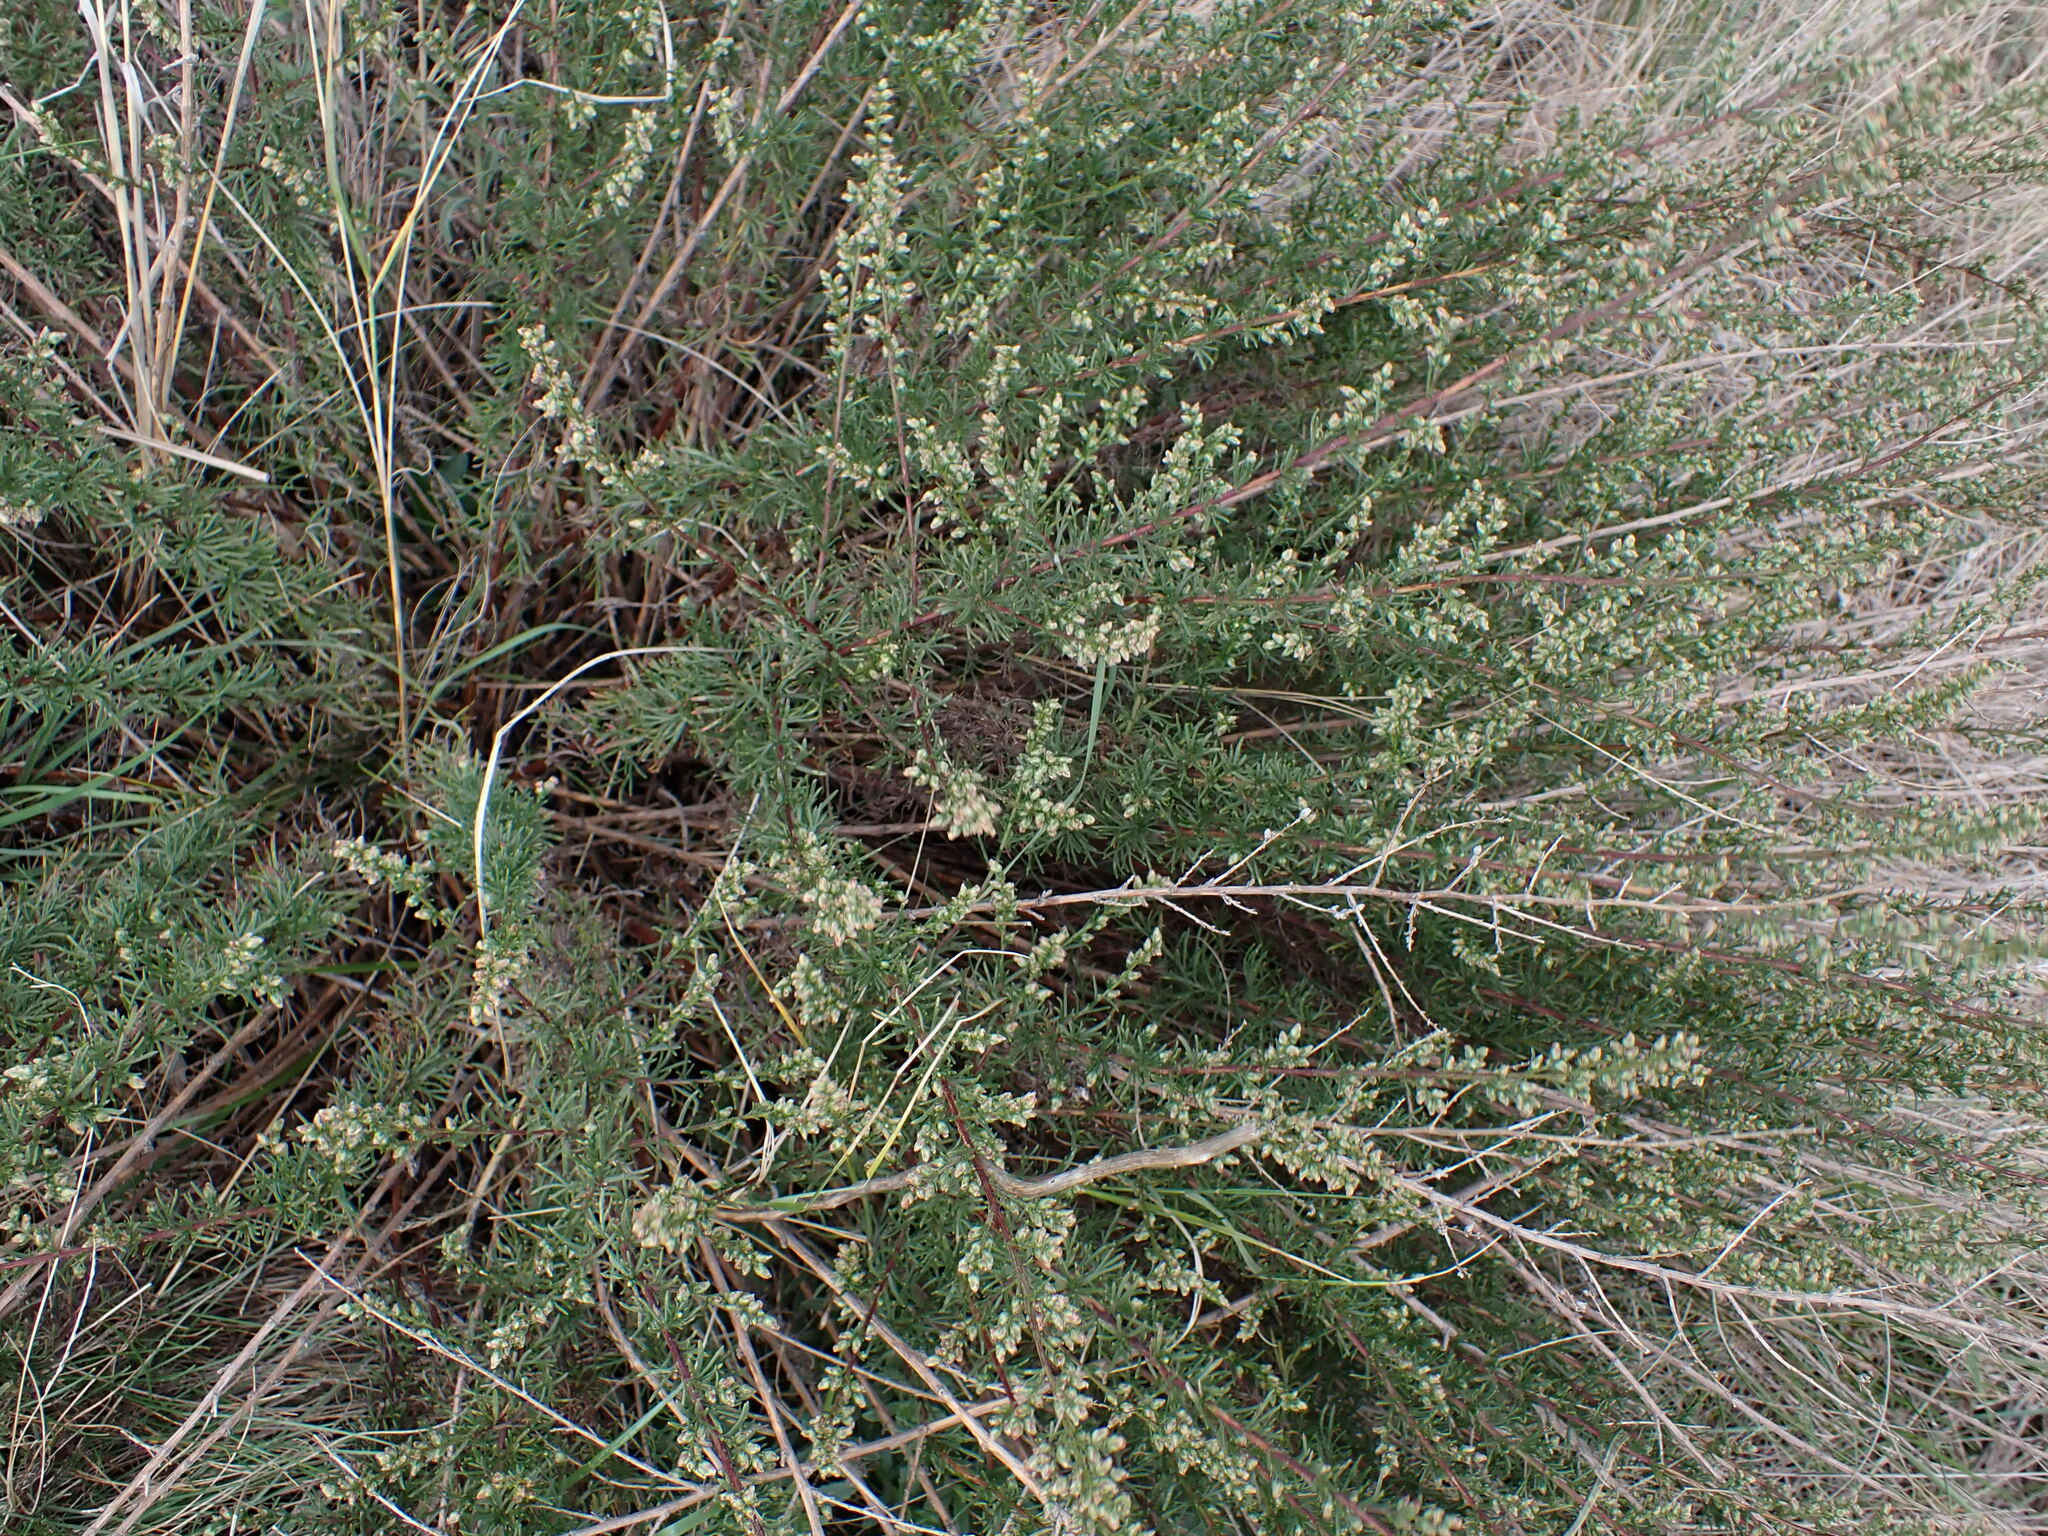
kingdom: Plantae
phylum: Tracheophyta
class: Magnoliopsida
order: Asterales
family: Asteraceae
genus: Artemisia
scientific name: Artemisia campestris
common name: Field wormwood
